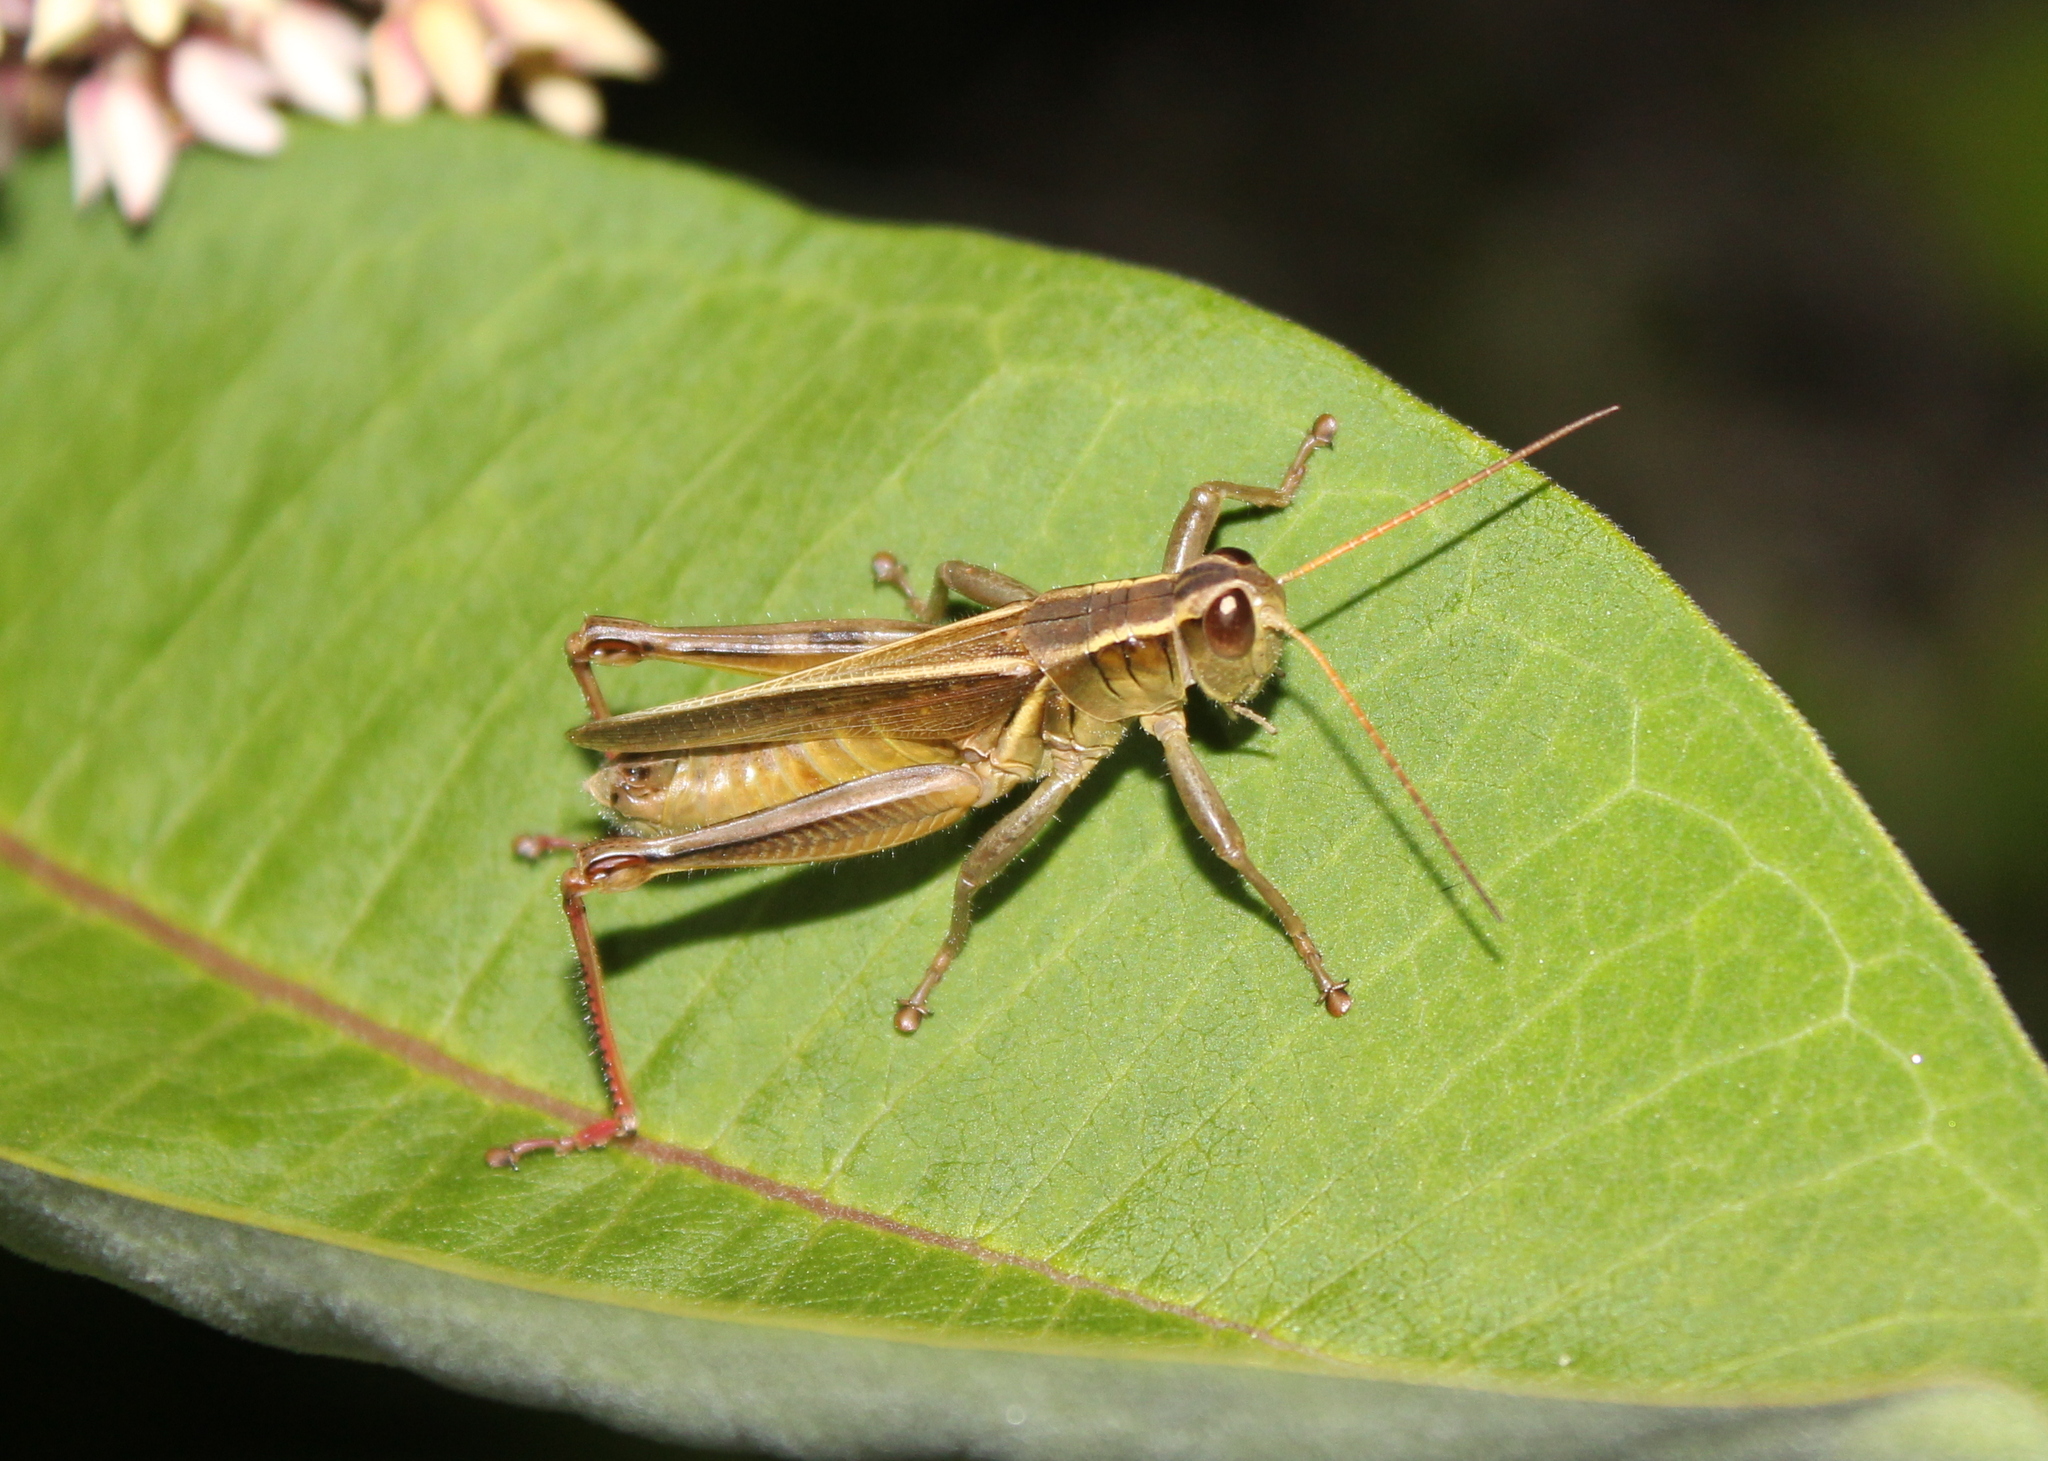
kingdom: Animalia
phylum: Arthropoda
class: Insecta
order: Orthoptera
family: Acrididae
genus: Melanoplus
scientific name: Melanoplus bivittatus
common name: Two-striped grasshopper
